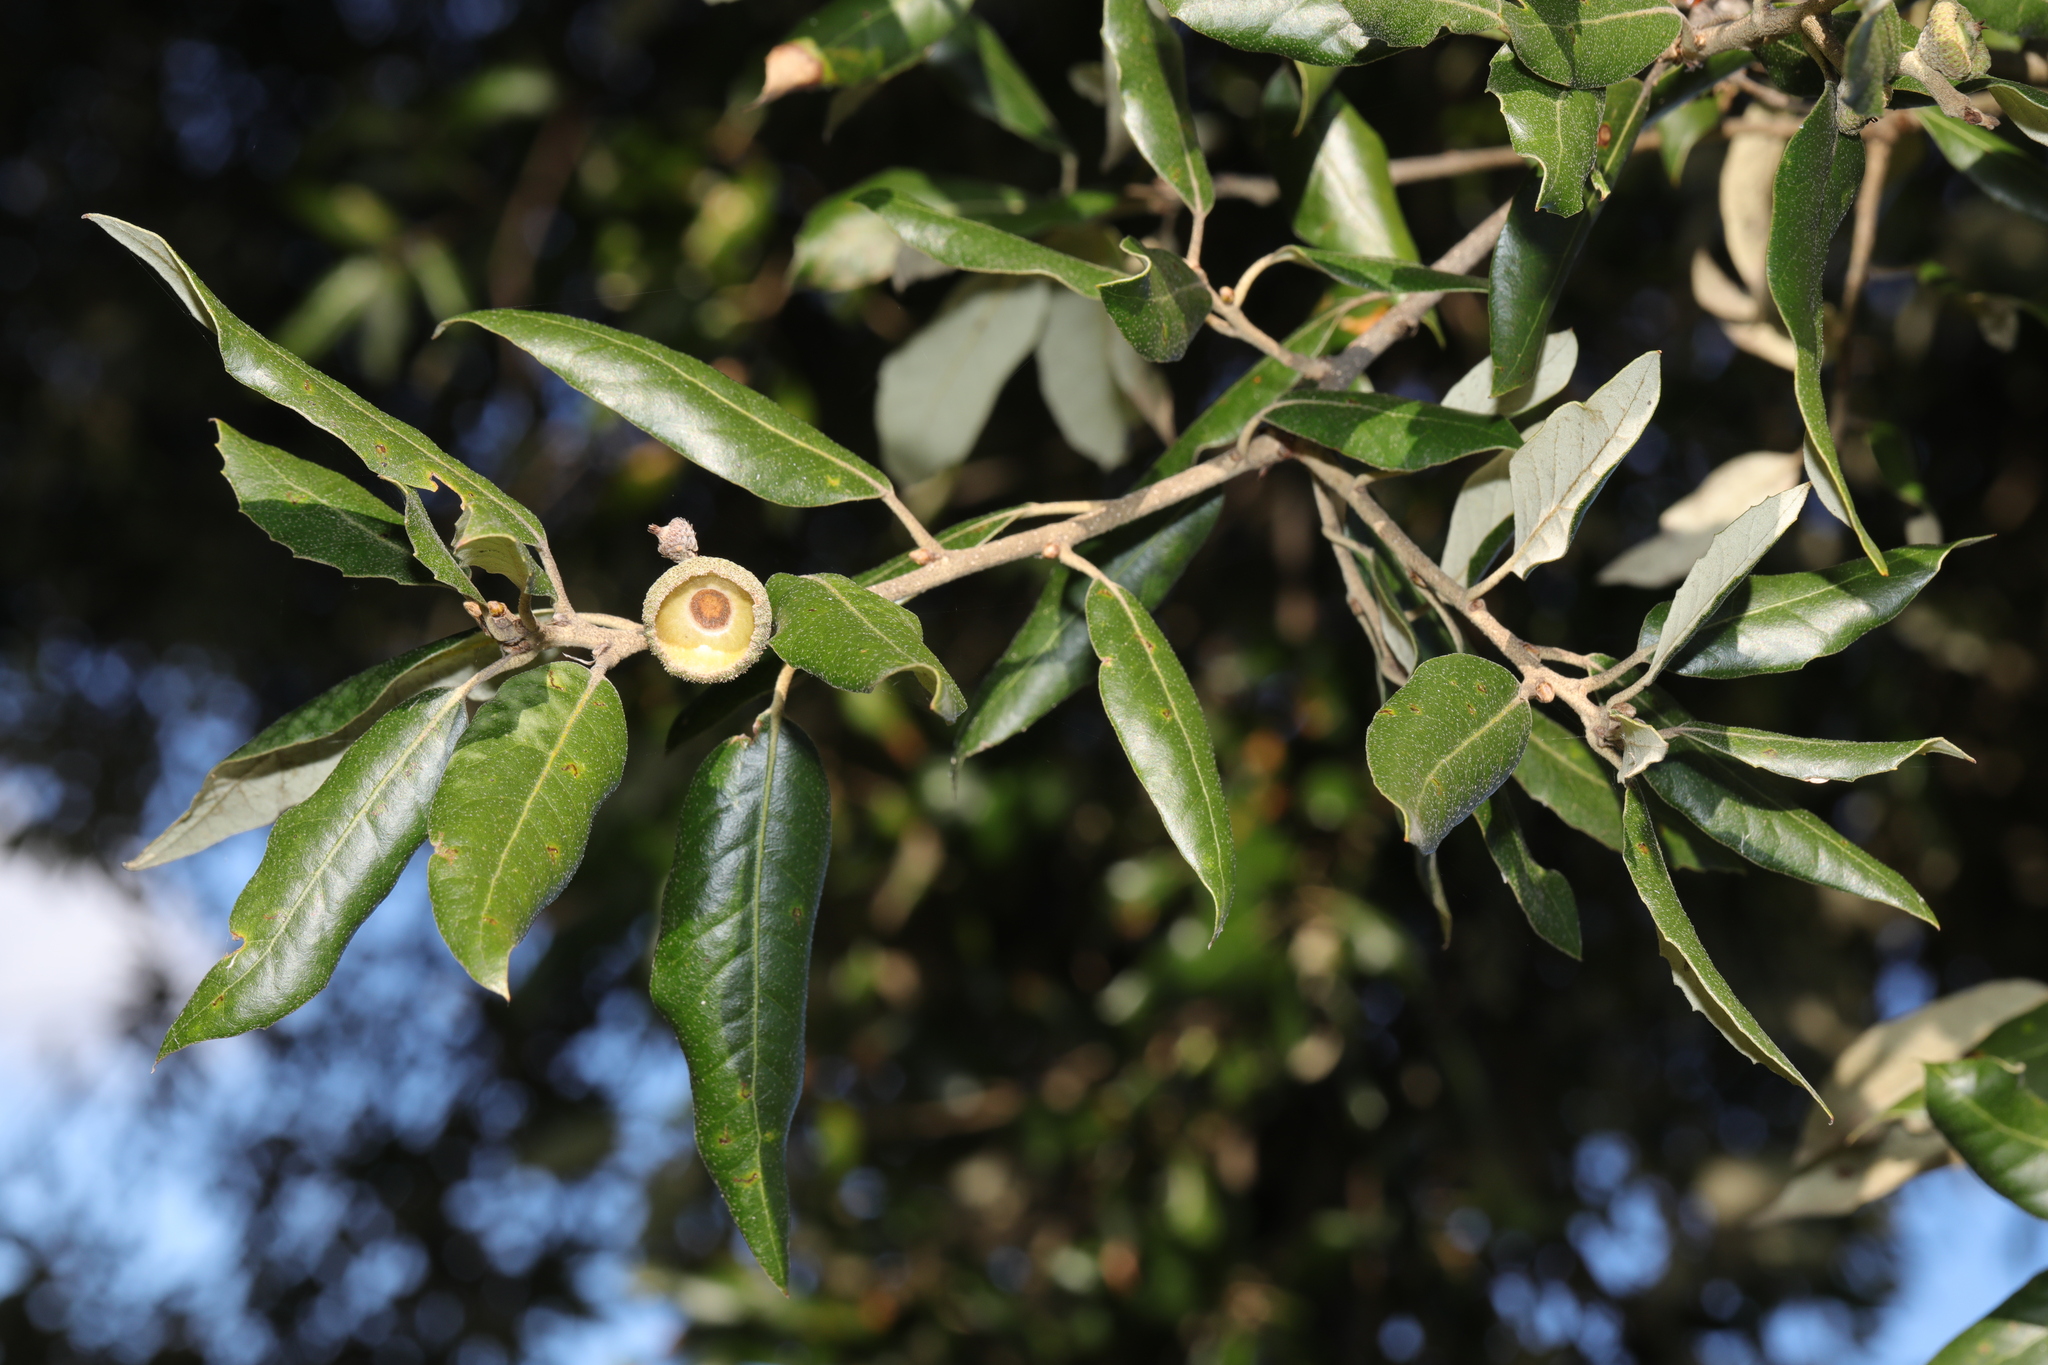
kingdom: Plantae
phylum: Tracheophyta
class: Magnoliopsida
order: Fagales
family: Fagaceae
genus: Quercus
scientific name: Quercus ilex
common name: Evergreen oak
